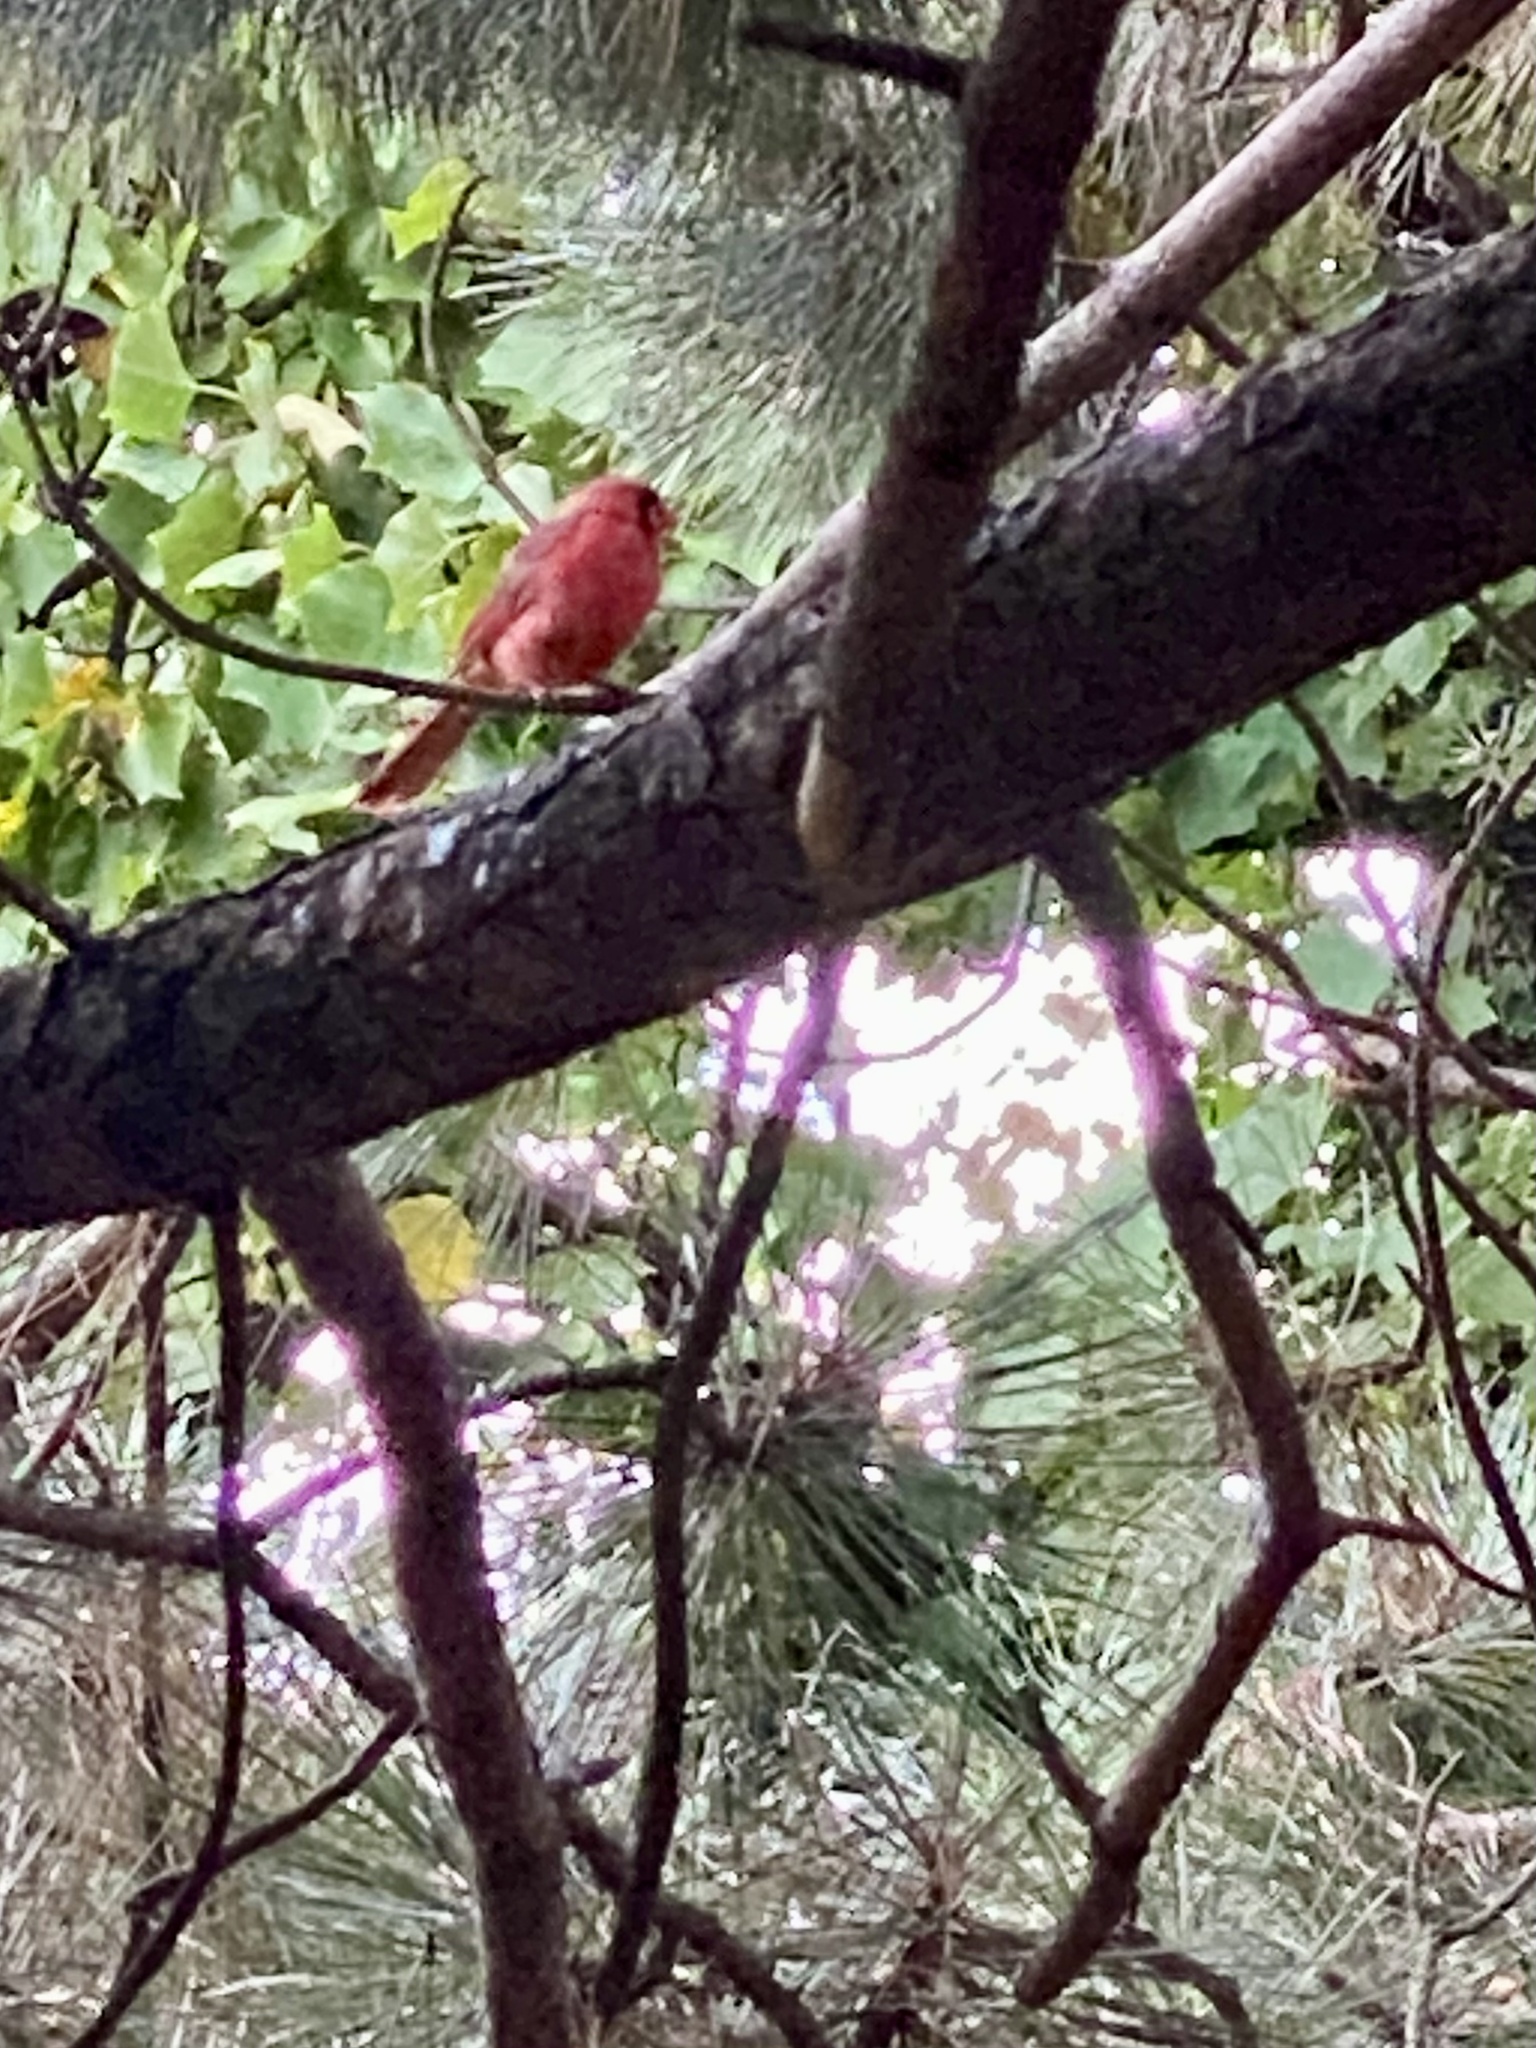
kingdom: Animalia
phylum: Chordata
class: Aves
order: Passeriformes
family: Cardinalidae
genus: Cardinalis
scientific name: Cardinalis cardinalis
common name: Northern cardinal
